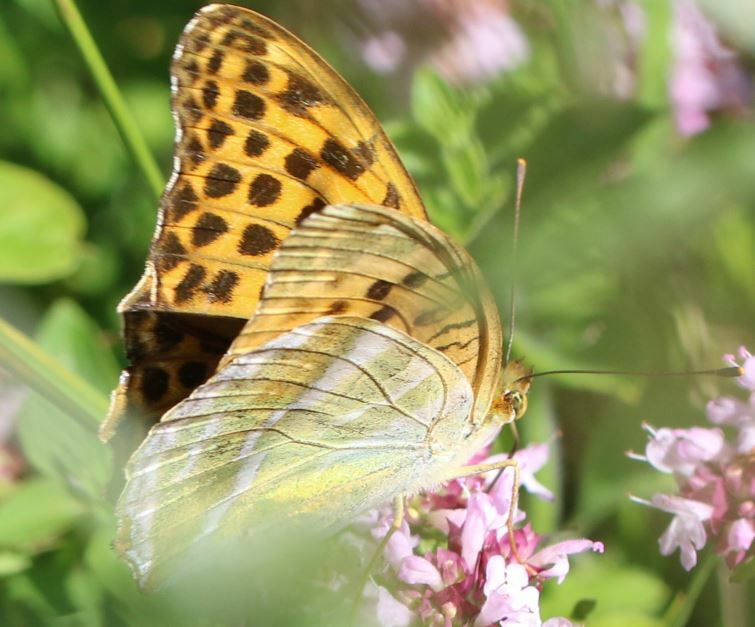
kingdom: Animalia
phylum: Arthropoda
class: Insecta
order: Lepidoptera
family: Nymphalidae
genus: Argynnis
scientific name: Argynnis paphia
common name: Silver-washed fritillary
